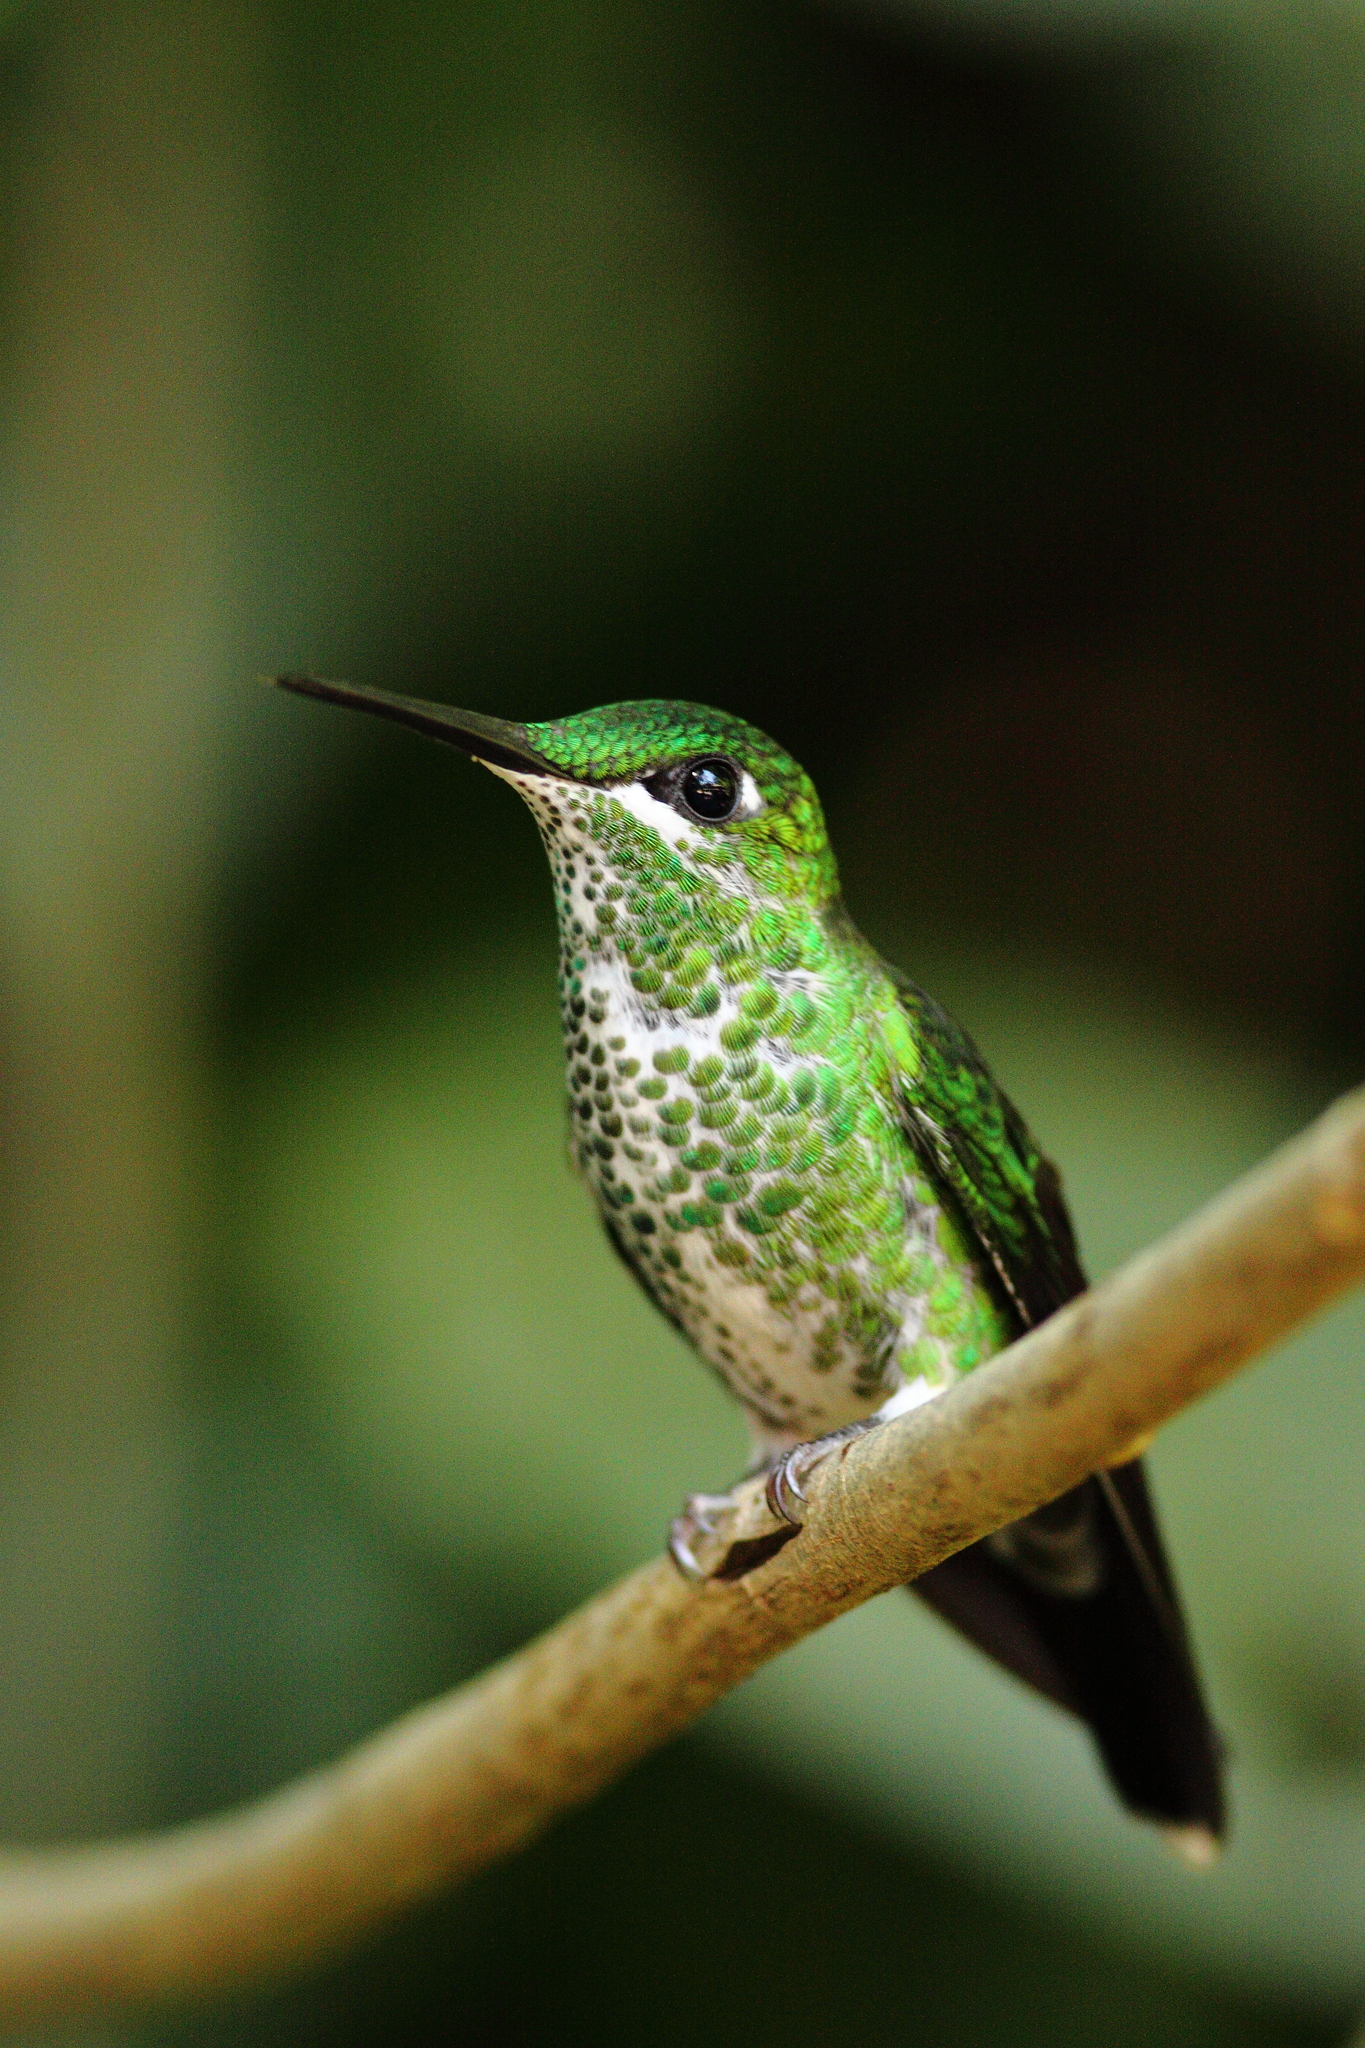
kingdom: Animalia
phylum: Chordata
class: Aves
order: Apodiformes
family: Trochilidae
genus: Heliodoxa
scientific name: Heliodoxa jacula
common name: Green-crowned brilliant
